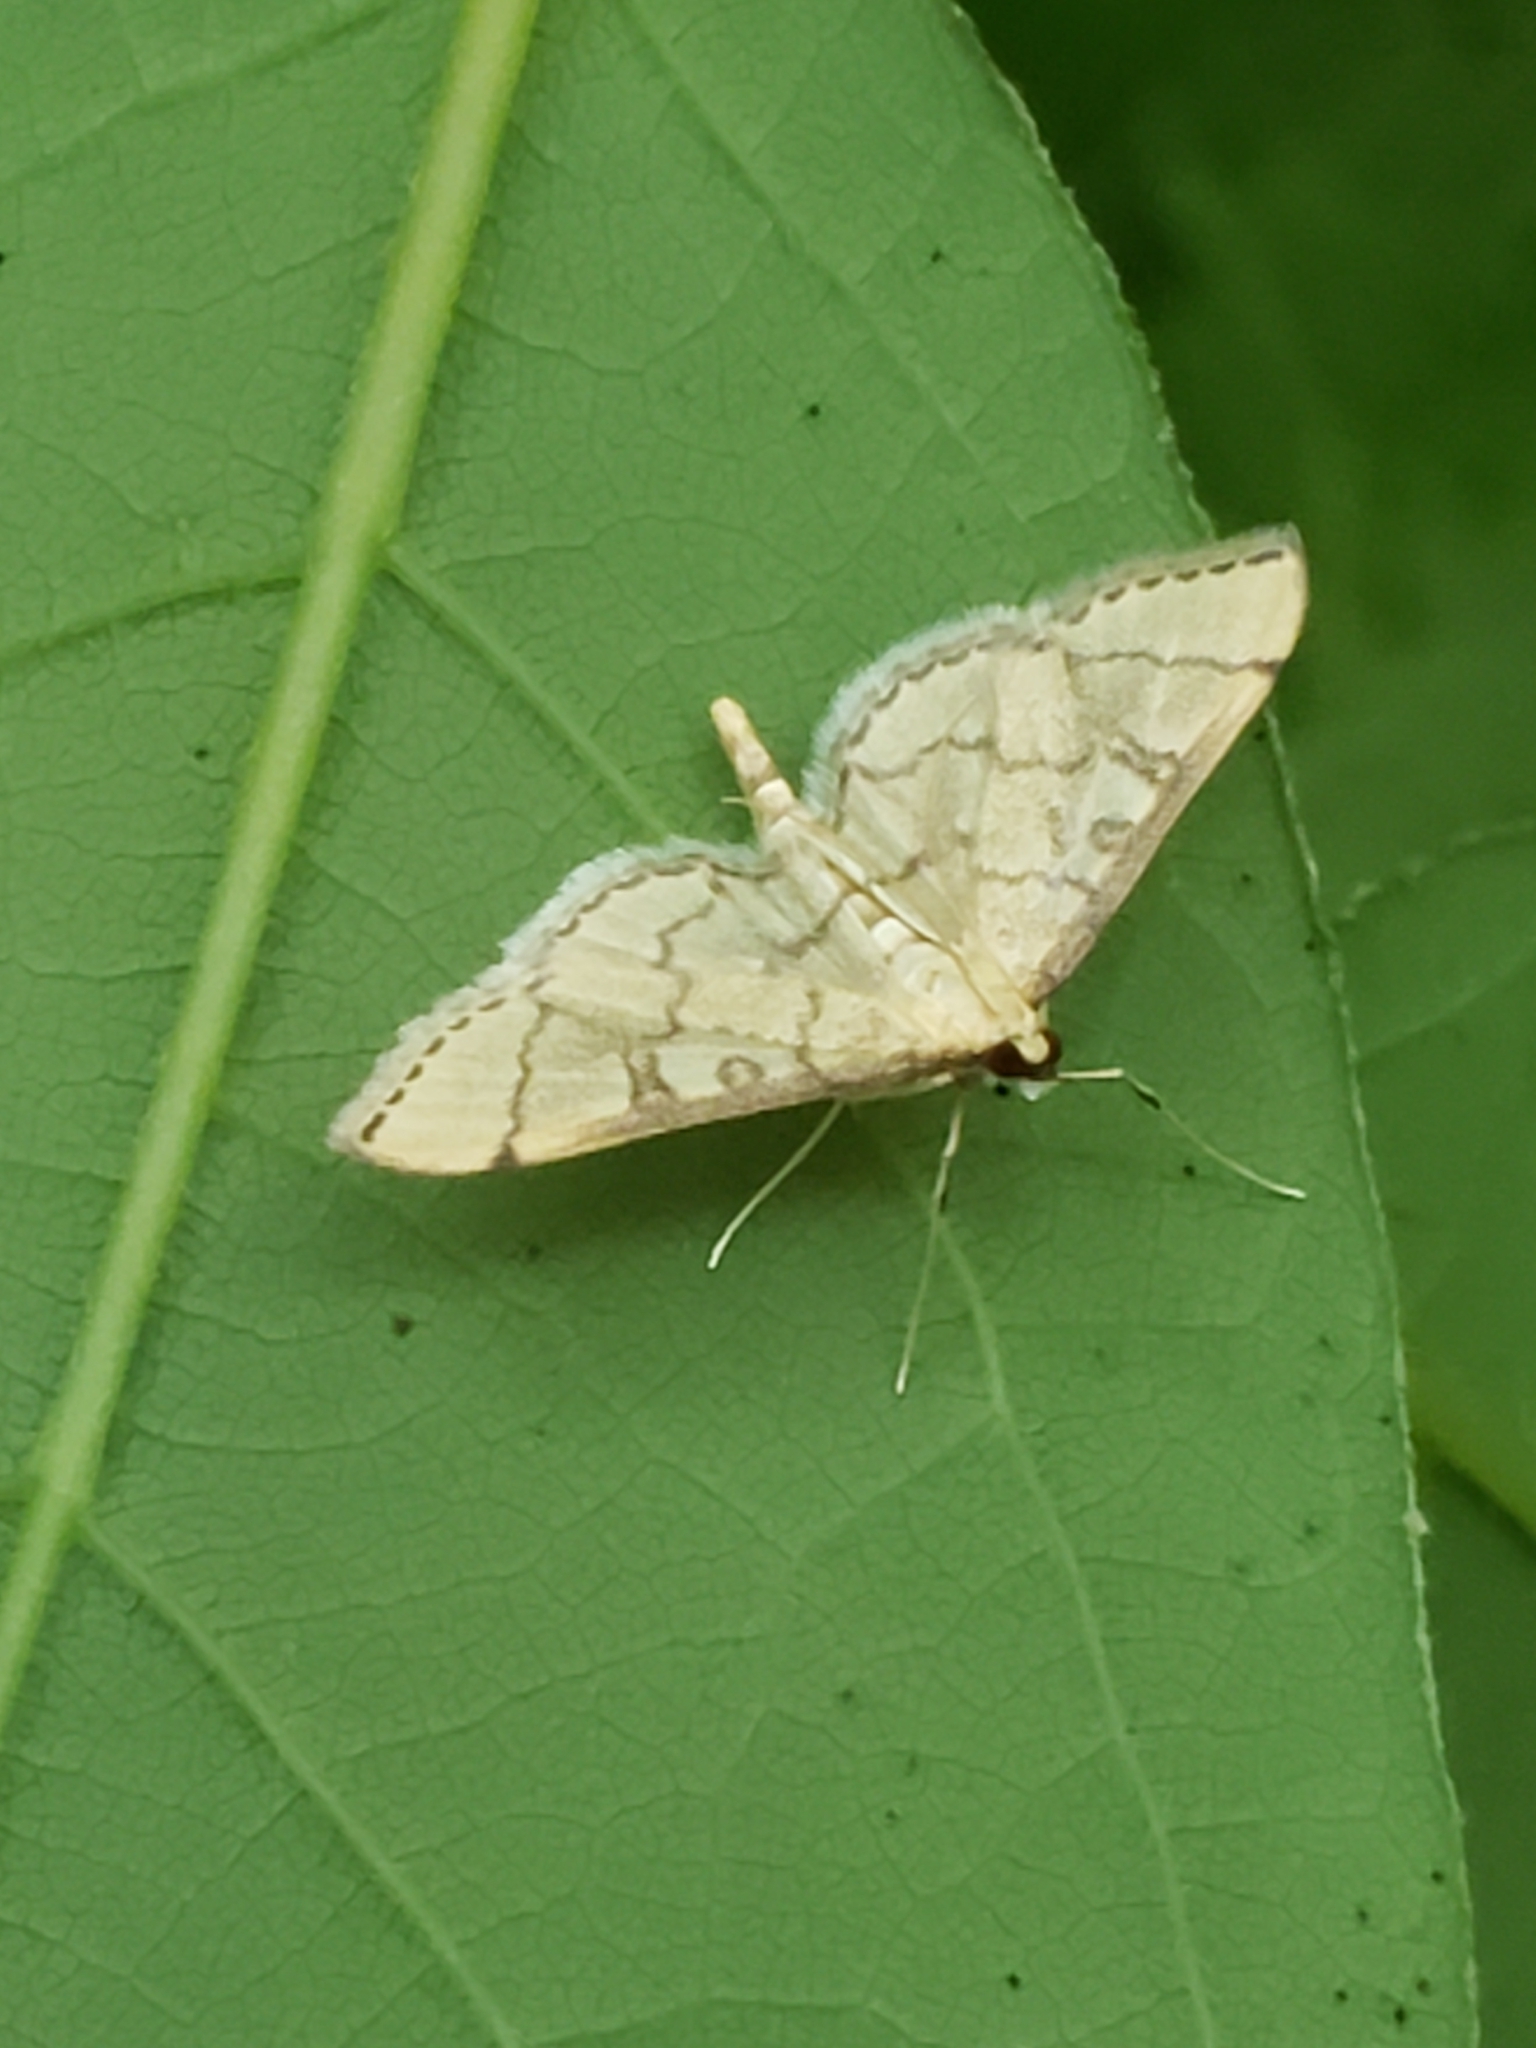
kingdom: Animalia
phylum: Arthropoda
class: Insecta
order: Lepidoptera
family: Crambidae
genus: Lamprosema
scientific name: Lamprosema Blepharomastix ranalis
